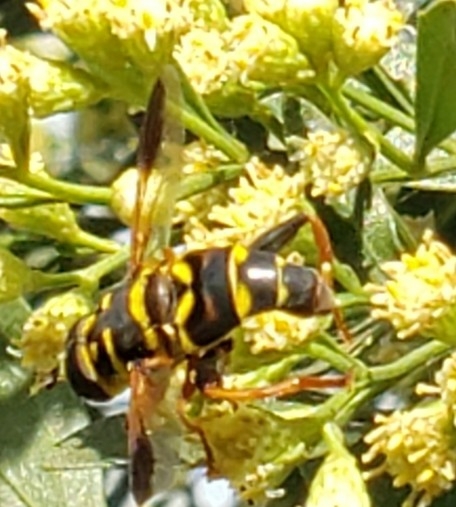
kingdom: Animalia
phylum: Arthropoda
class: Insecta
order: Diptera
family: Syrphidae
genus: Meromacrus
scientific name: Meromacrus acutus
